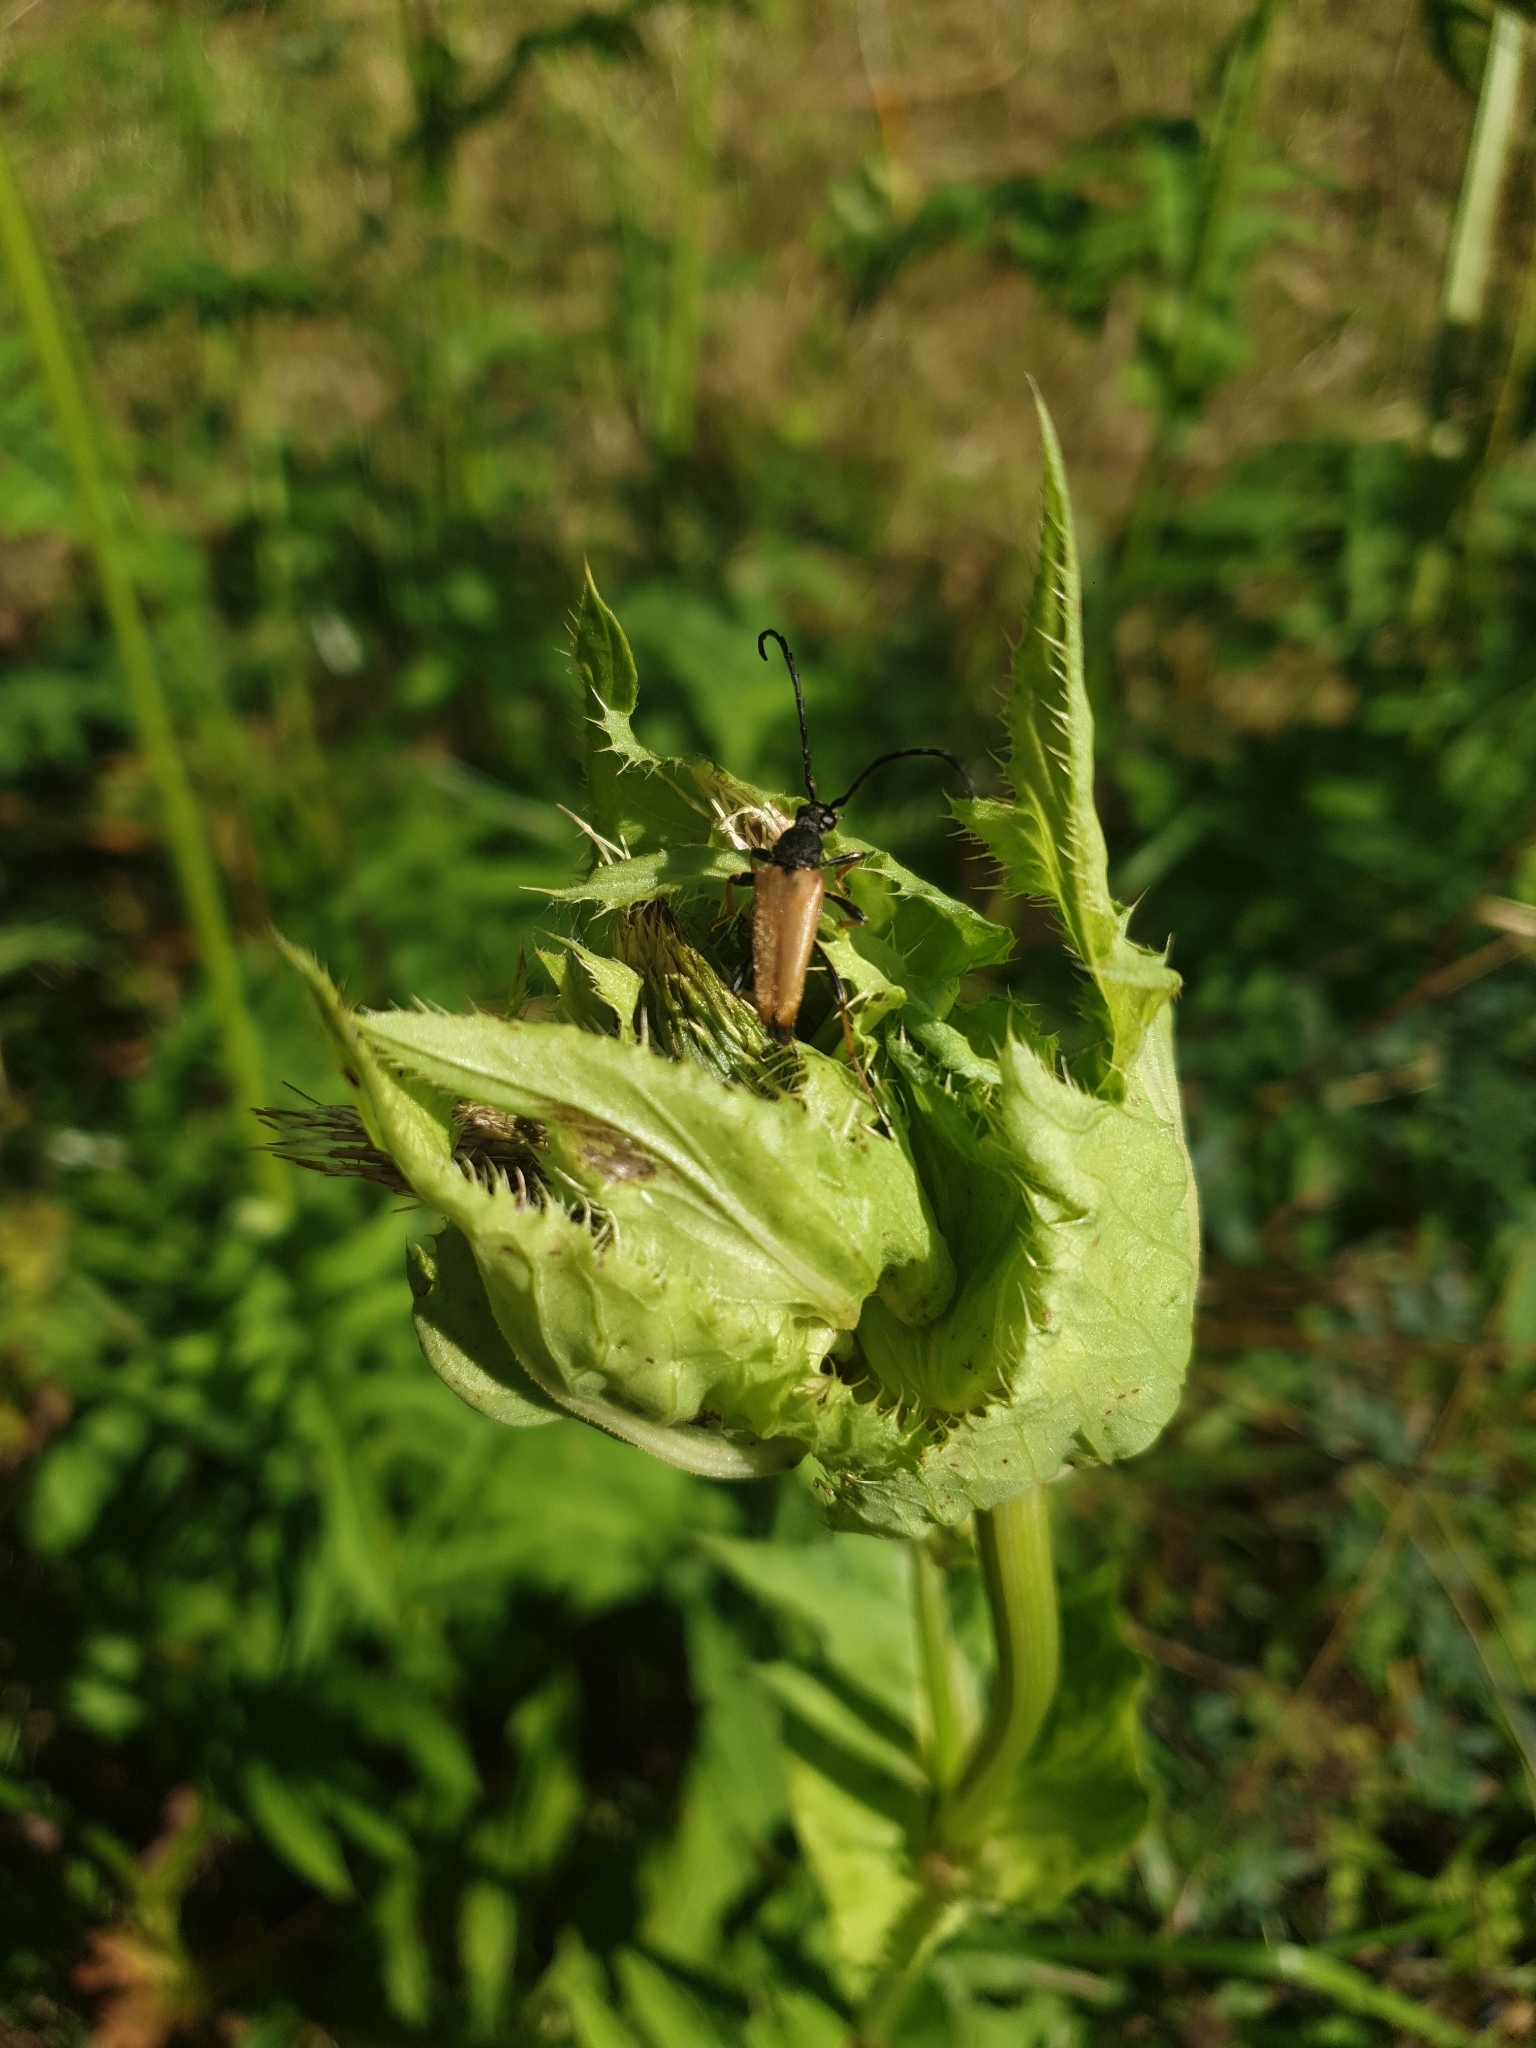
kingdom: Animalia
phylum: Arthropoda
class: Insecta
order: Coleoptera
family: Cerambycidae
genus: Stictoleptura
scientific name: Stictoleptura rubra
